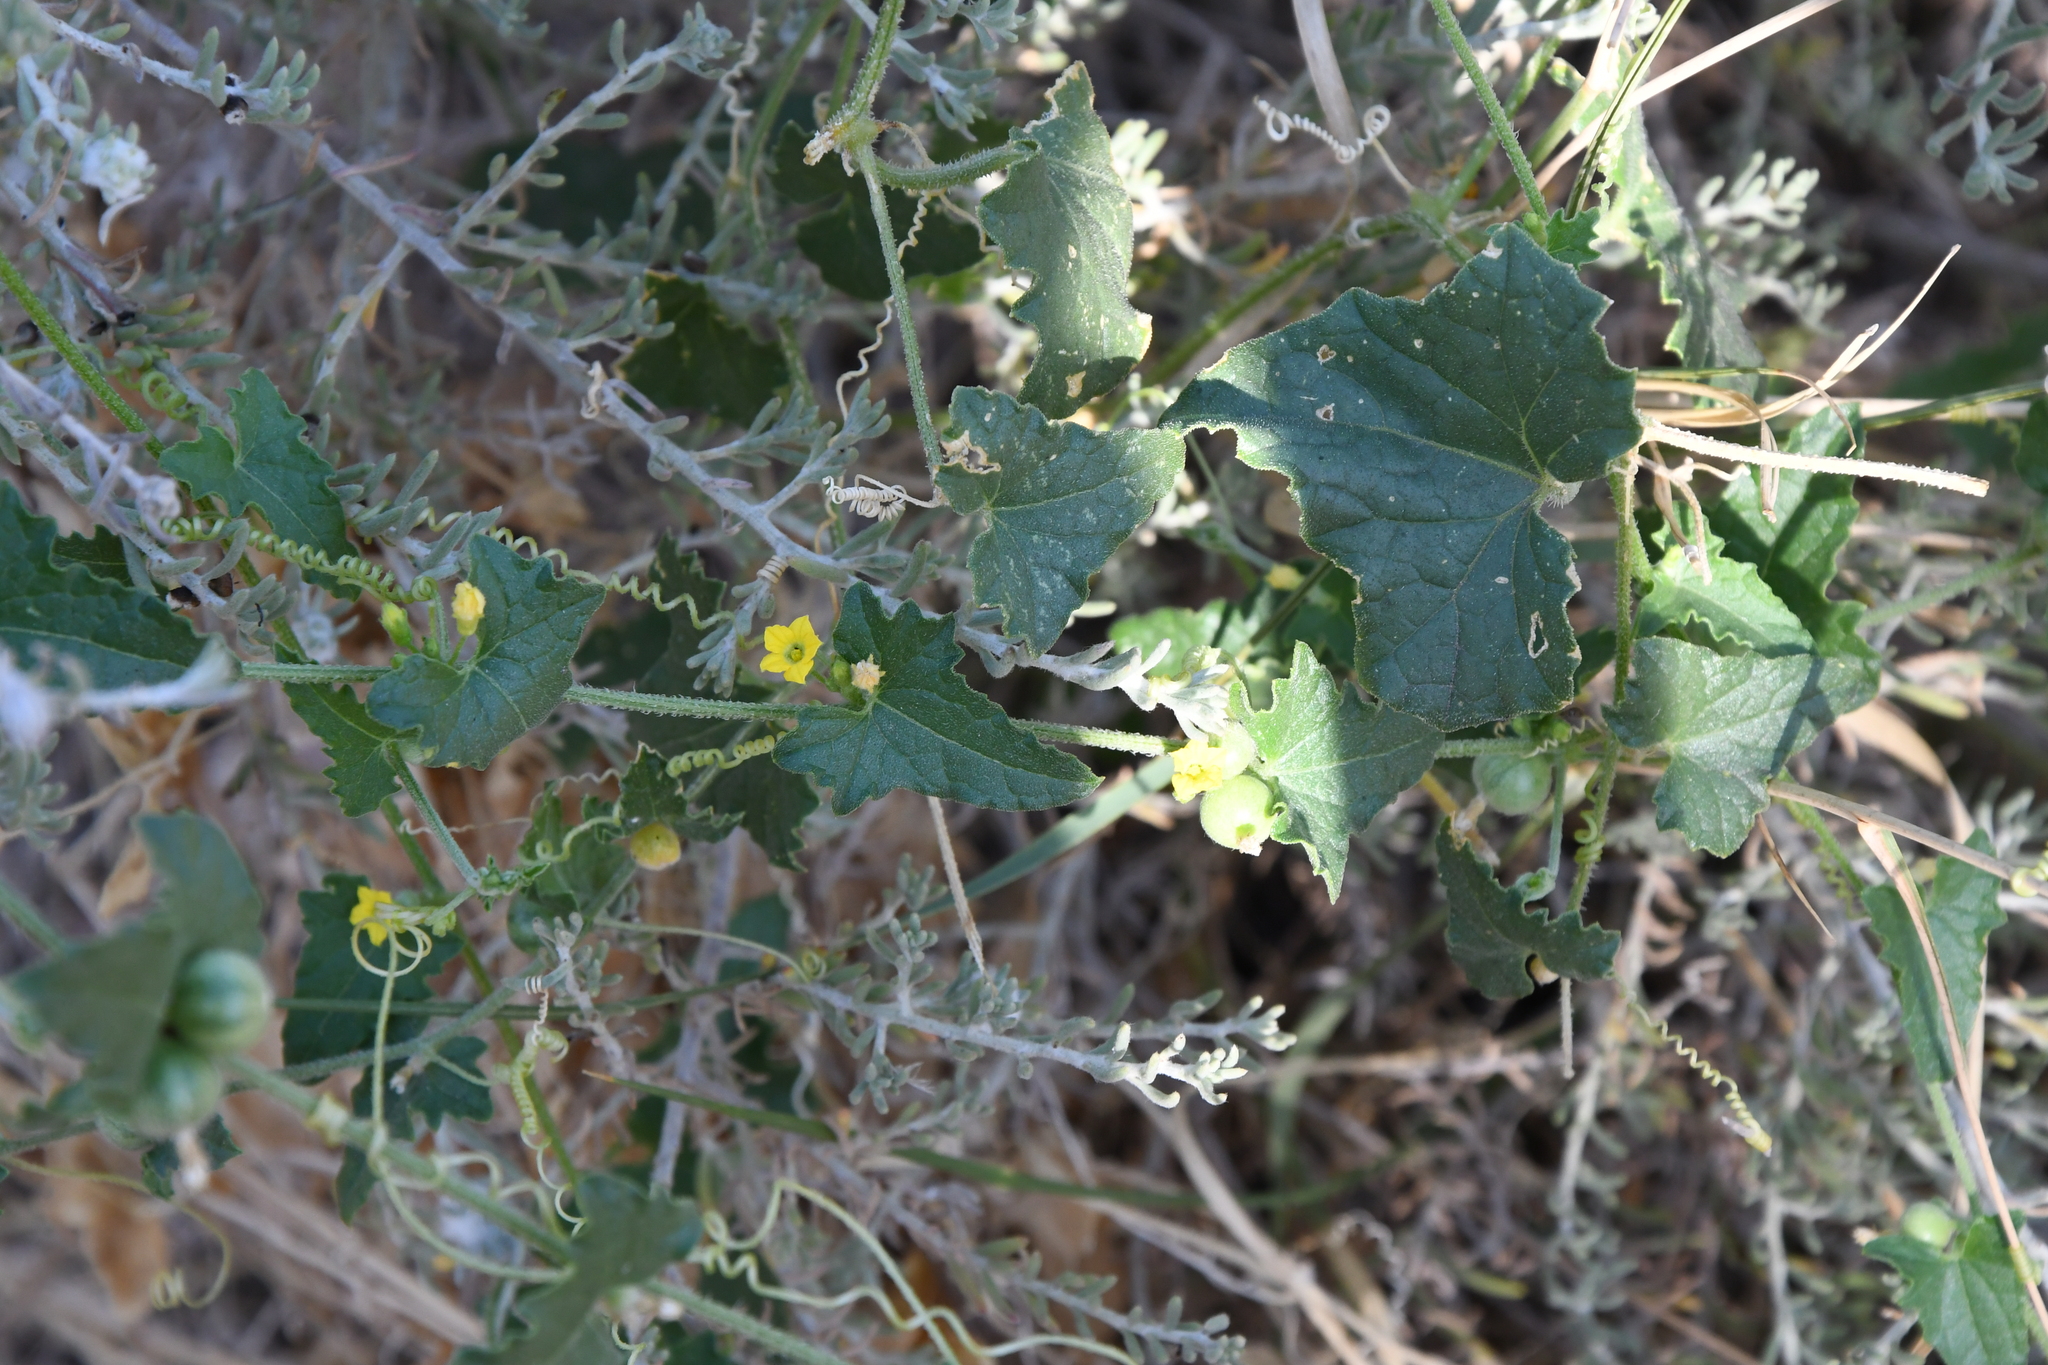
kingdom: Plantae
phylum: Tracheophyta
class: Magnoliopsida
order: Cucurbitales
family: Cucurbitaceae
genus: Cucumis
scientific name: Cucumis argenteus
